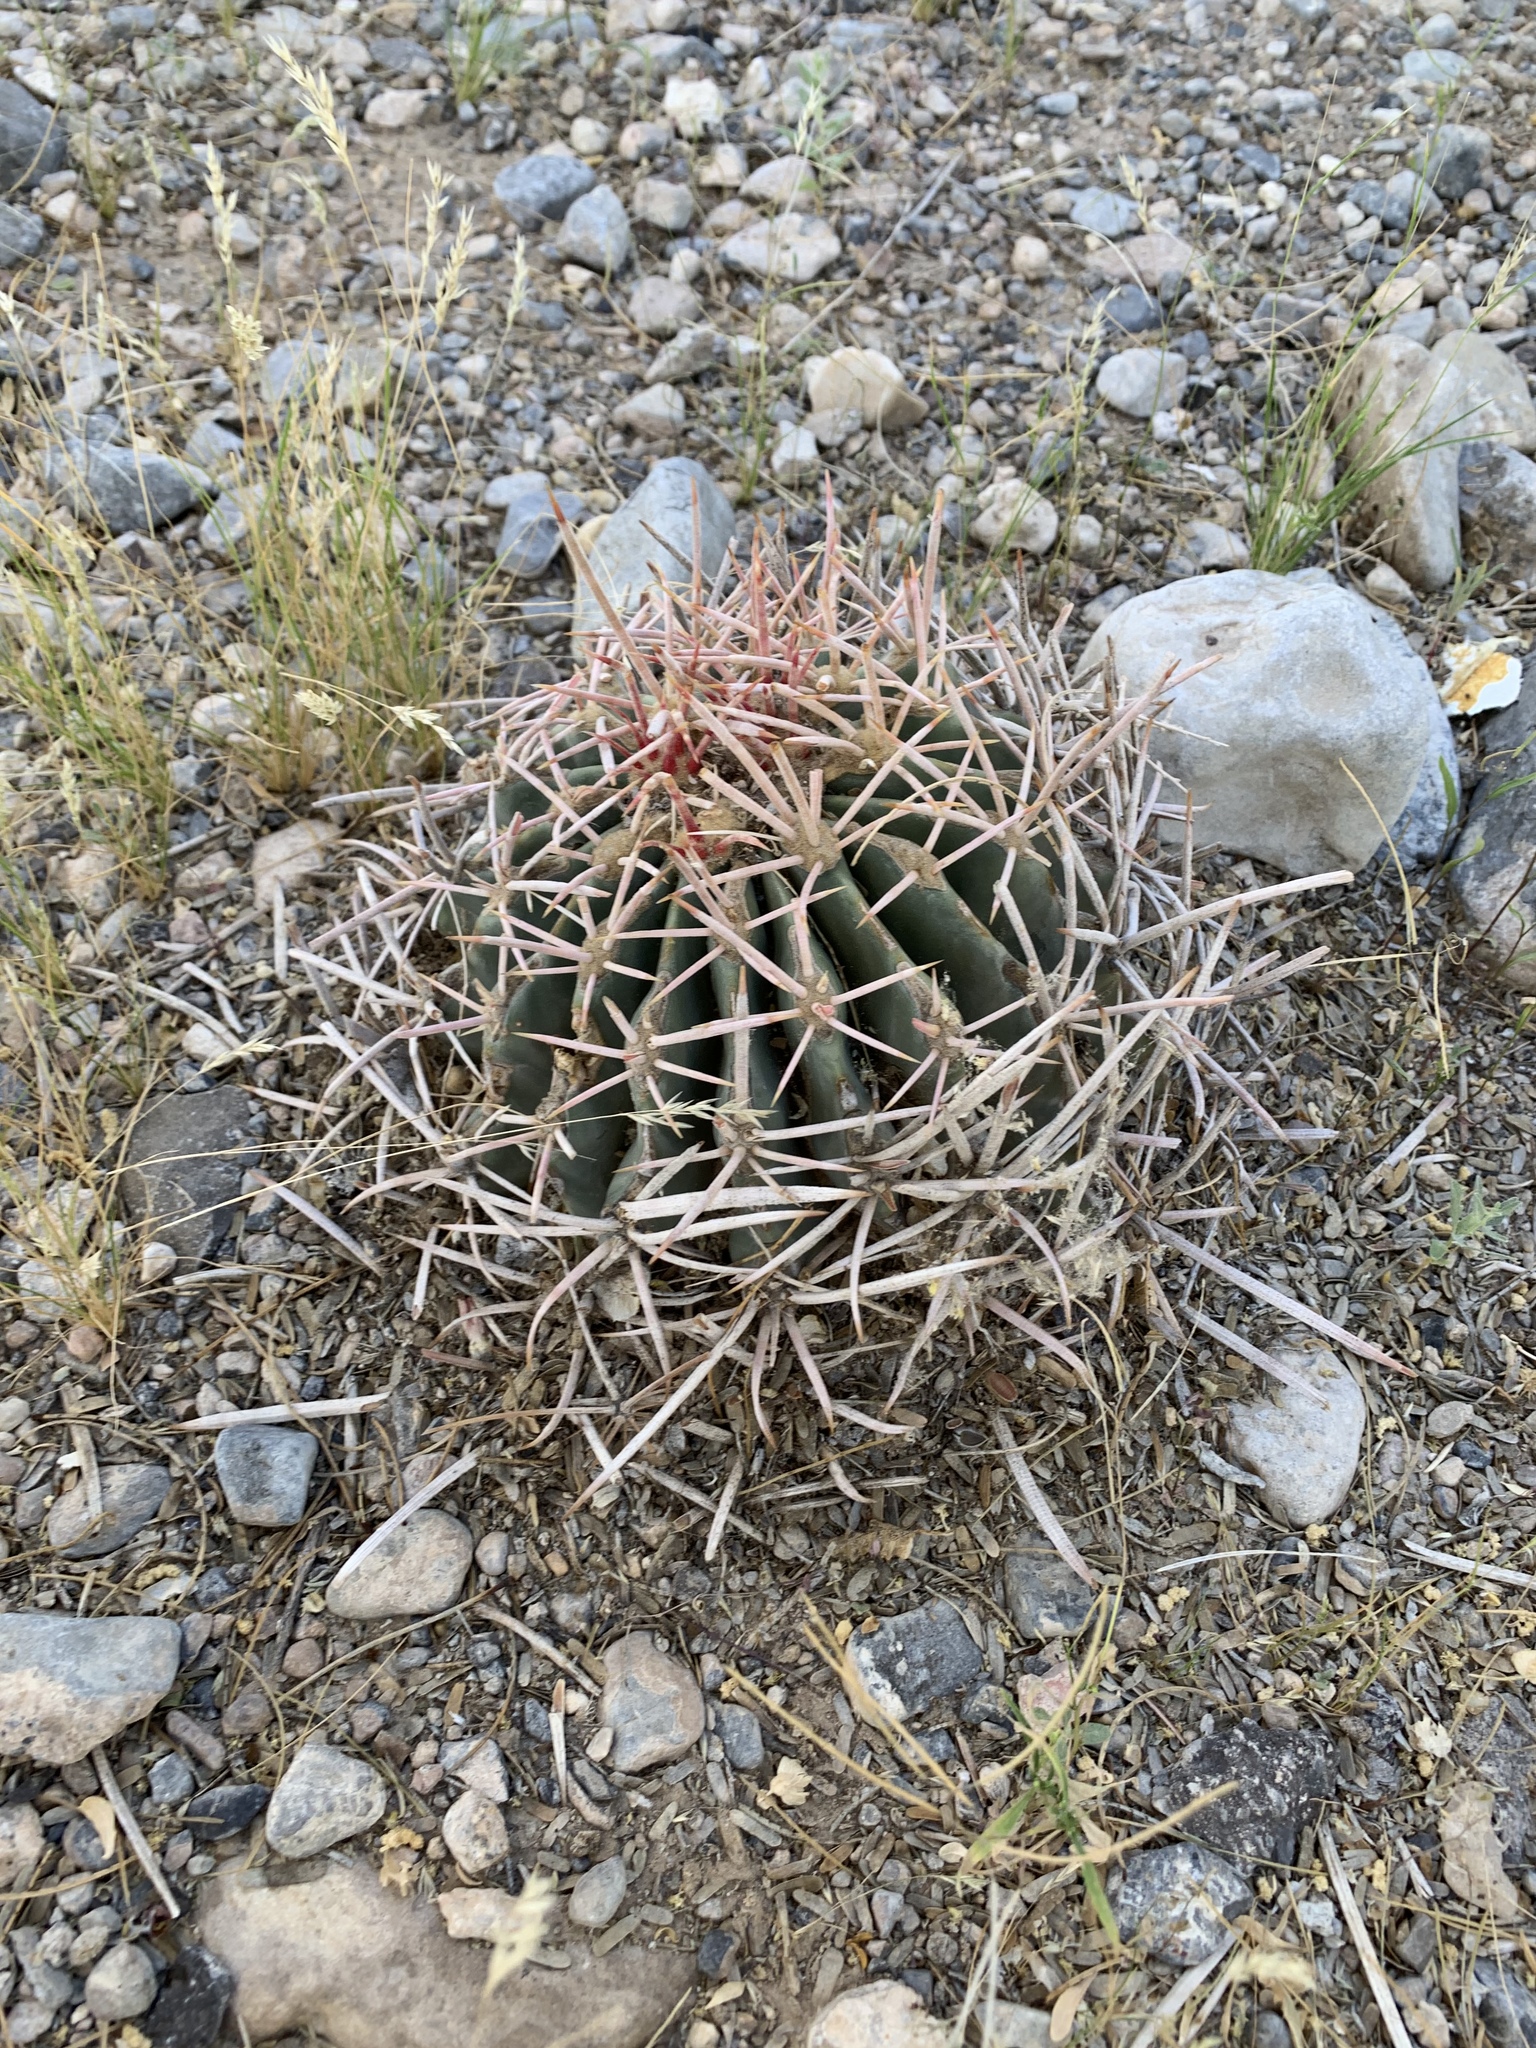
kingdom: Plantae
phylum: Tracheophyta
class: Magnoliopsida
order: Caryophyllales
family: Cactaceae
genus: Echinocactus
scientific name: Echinocactus polycephalus
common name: Cottontop cactus
